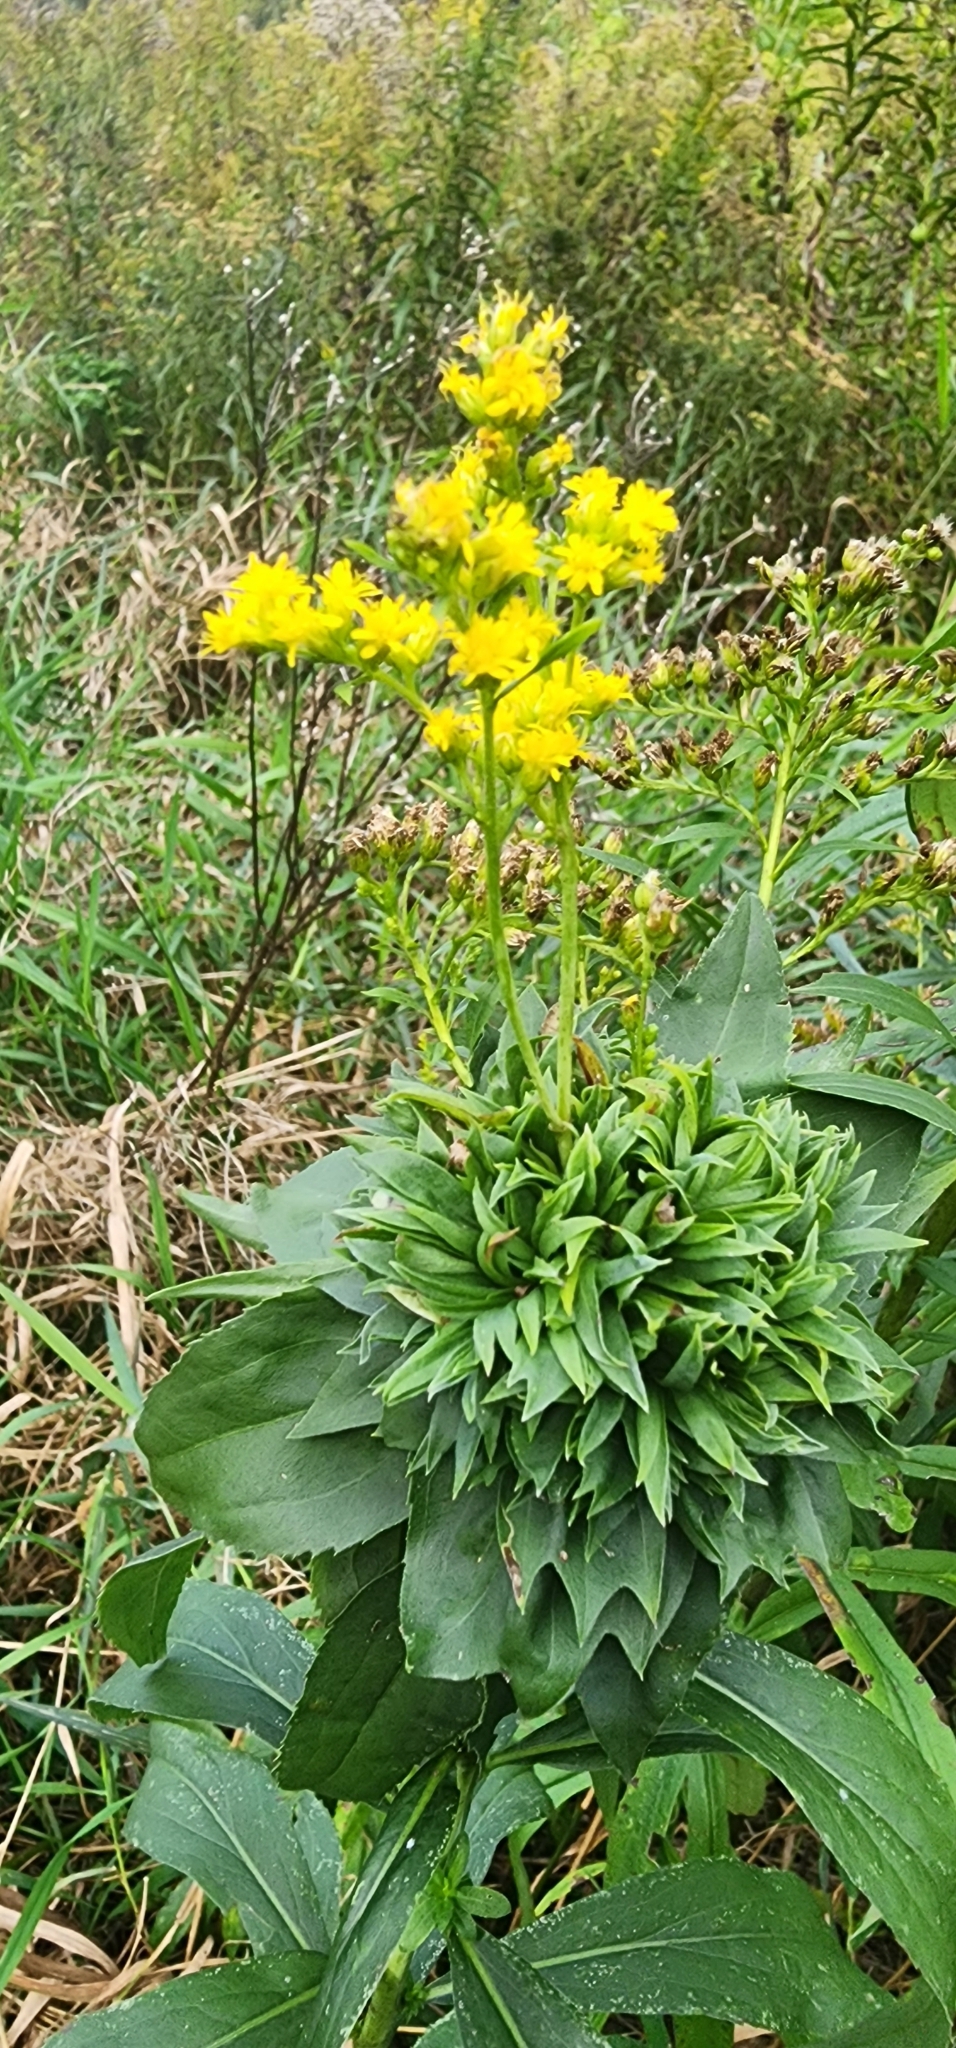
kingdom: Animalia
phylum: Arthropoda
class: Insecta
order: Diptera
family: Cecidomyiidae
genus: Rhopalomyia
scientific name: Rhopalomyia solidaginis
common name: Goldenrod bunch gall midge
